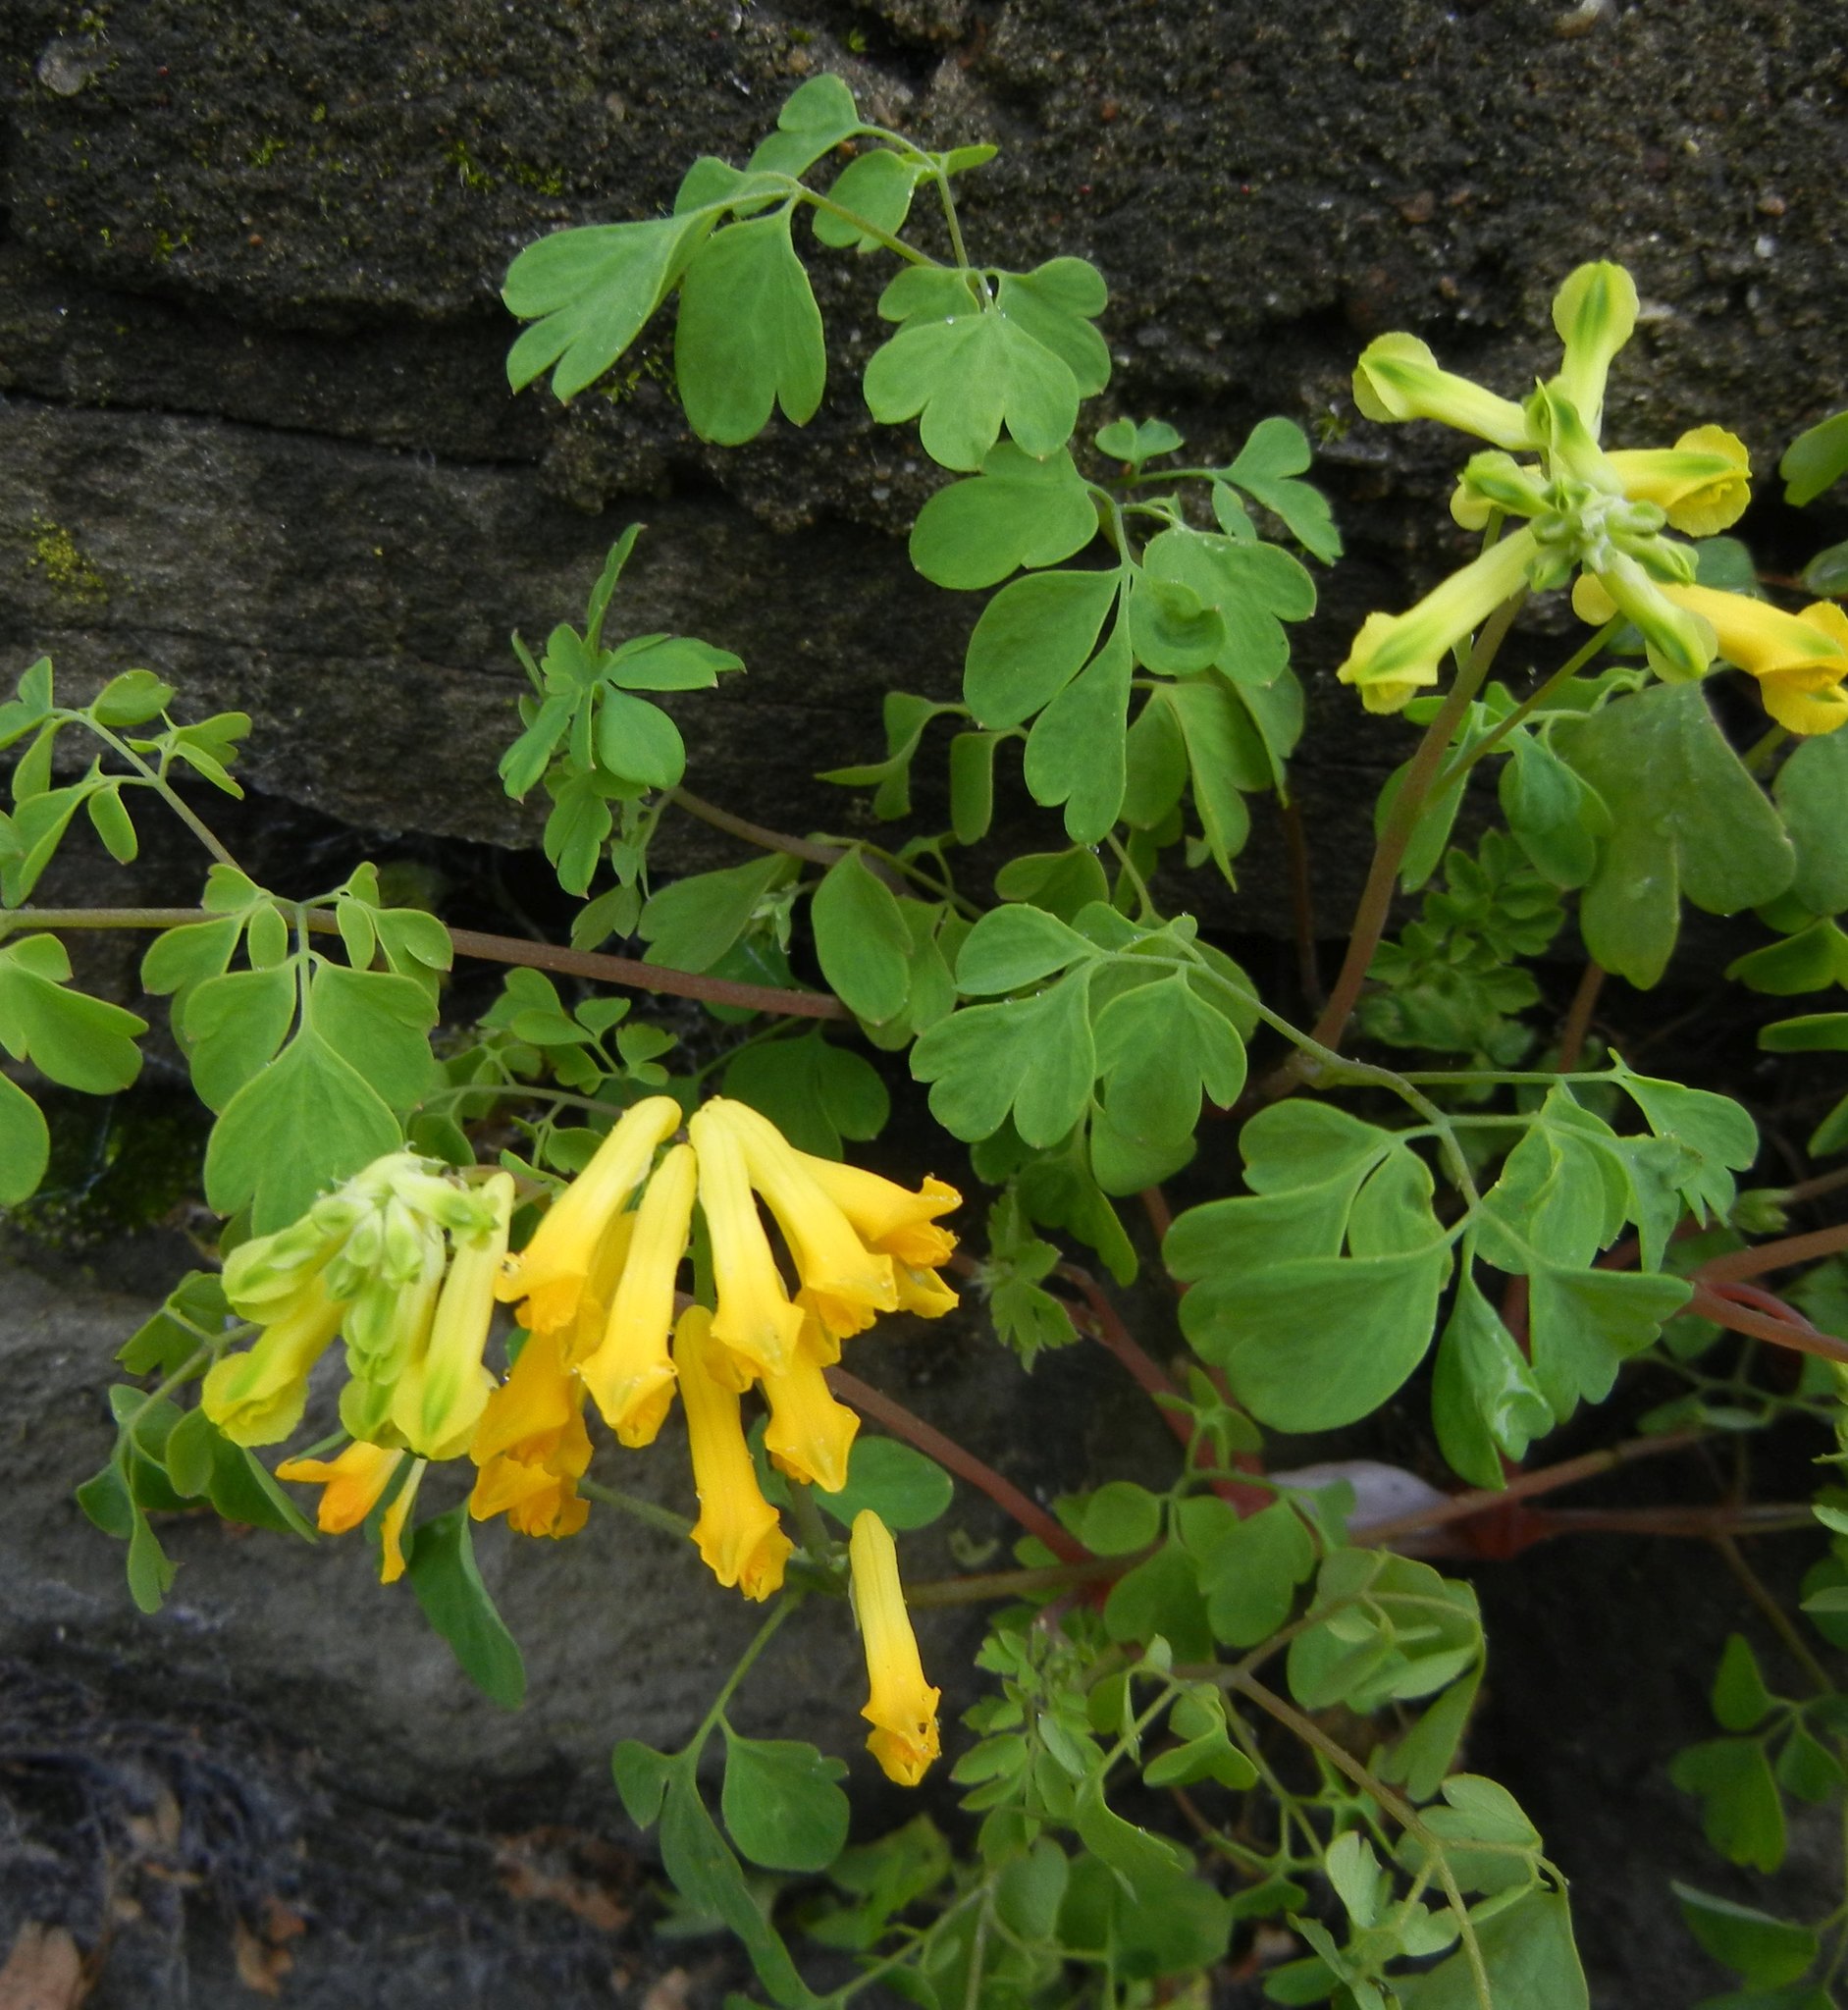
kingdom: Plantae
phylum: Tracheophyta
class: Magnoliopsida
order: Ranunculales
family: Papaveraceae
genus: Pseudofumaria
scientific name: Pseudofumaria lutea
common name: Yellow corydalis
